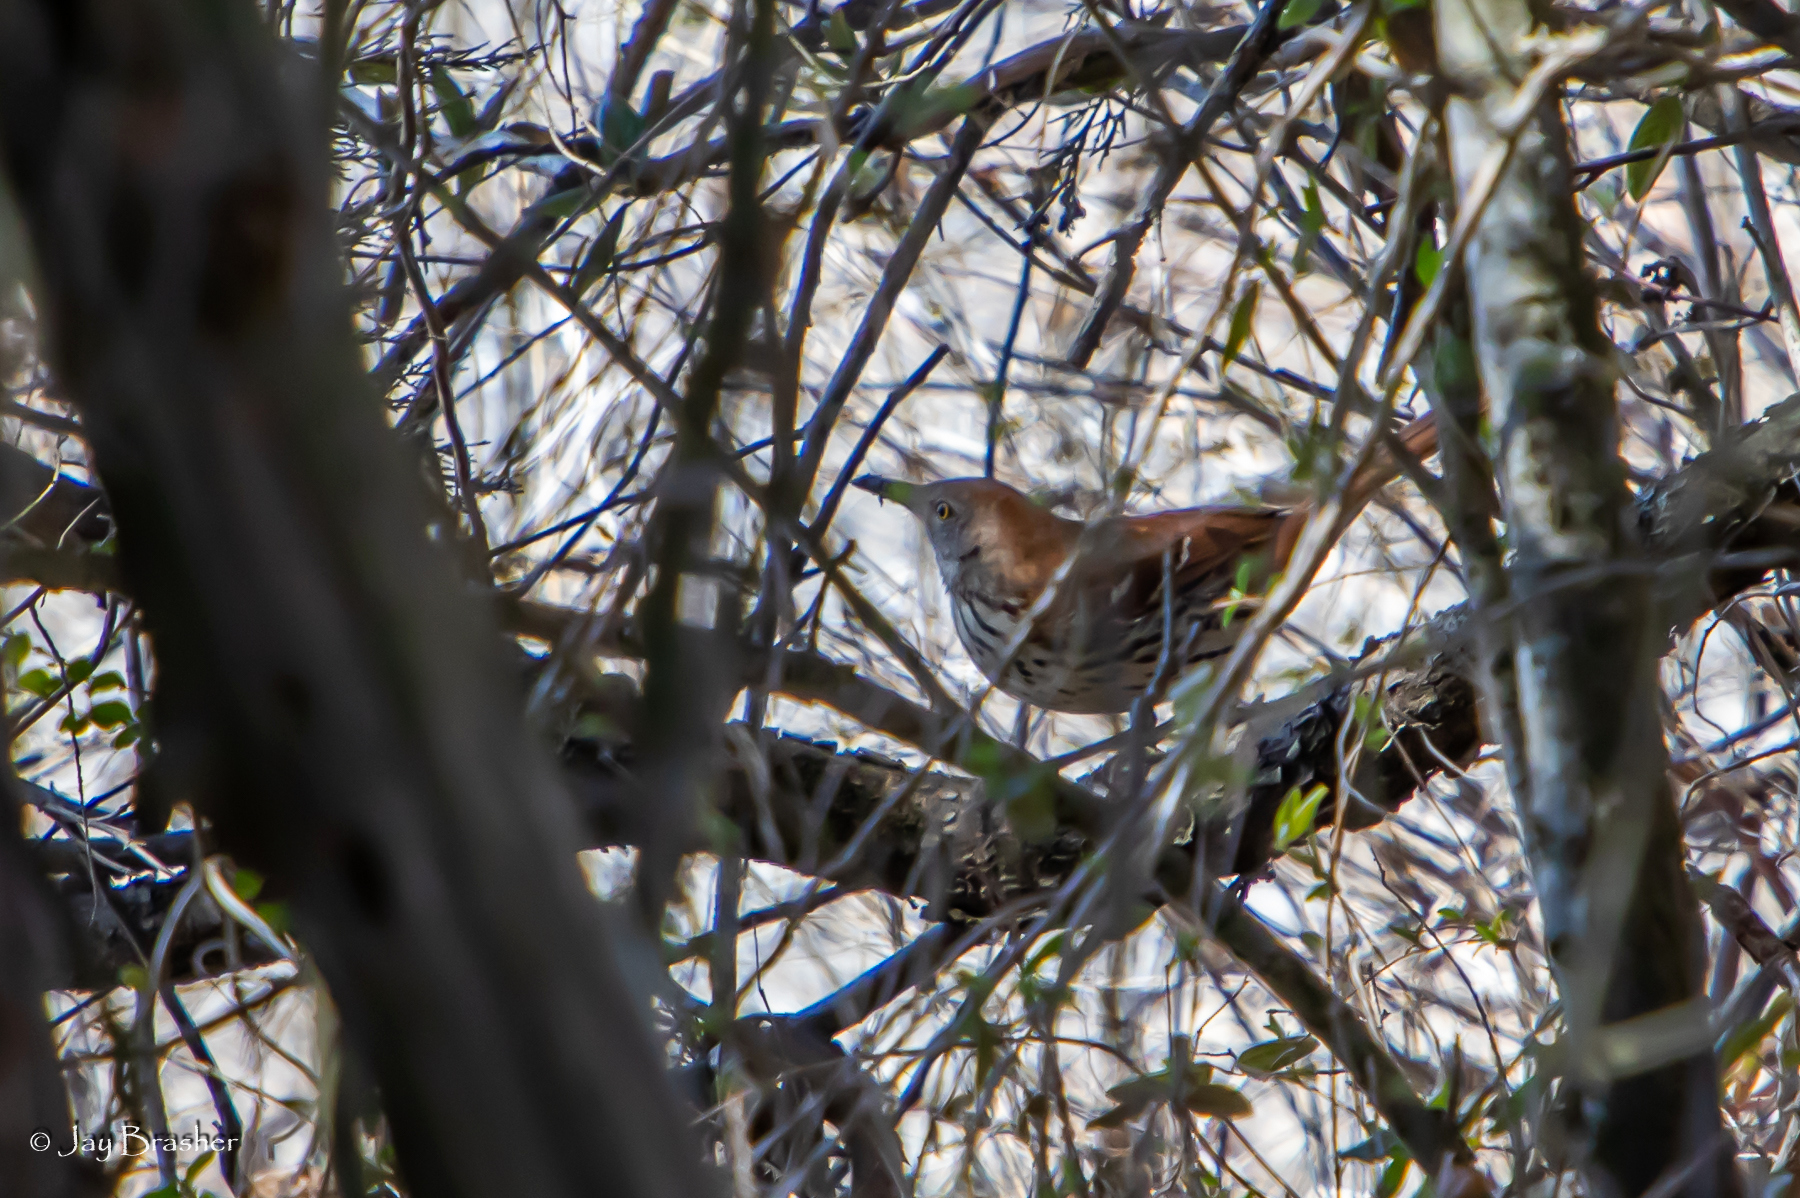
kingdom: Animalia
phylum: Chordata
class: Aves
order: Passeriformes
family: Mimidae
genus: Toxostoma
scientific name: Toxostoma rufum
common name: Brown thrasher
